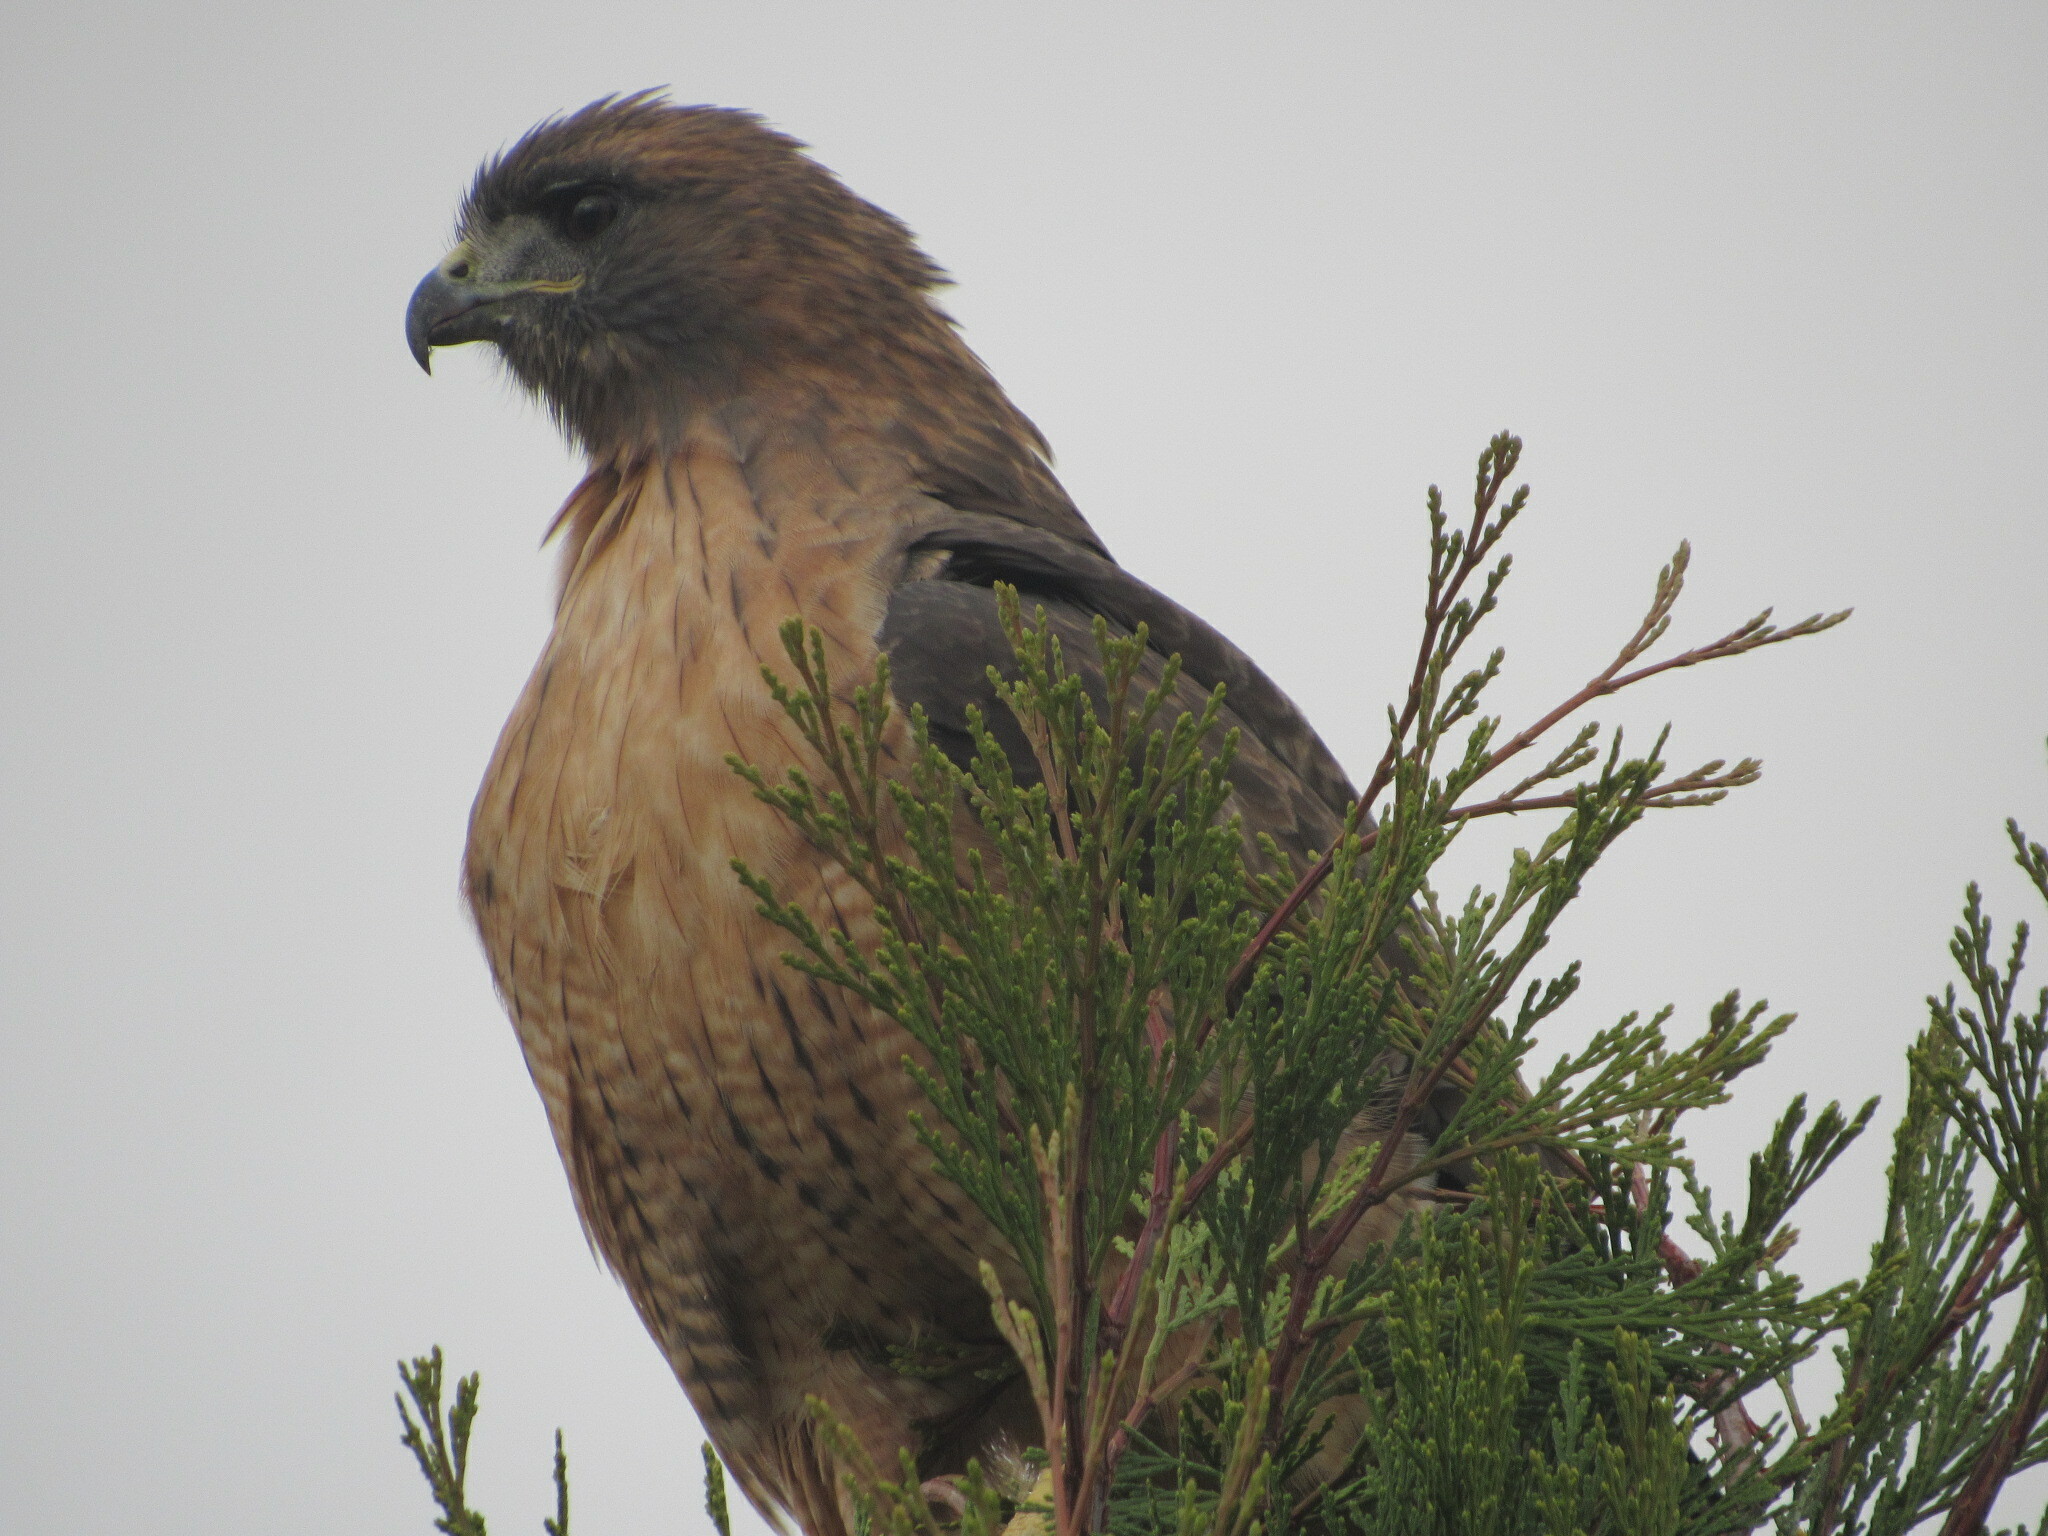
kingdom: Animalia
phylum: Chordata
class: Aves
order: Accipitriformes
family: Accipitridae
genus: Buteo
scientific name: Buteo jamaicensis
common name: Red-tailed hawk
